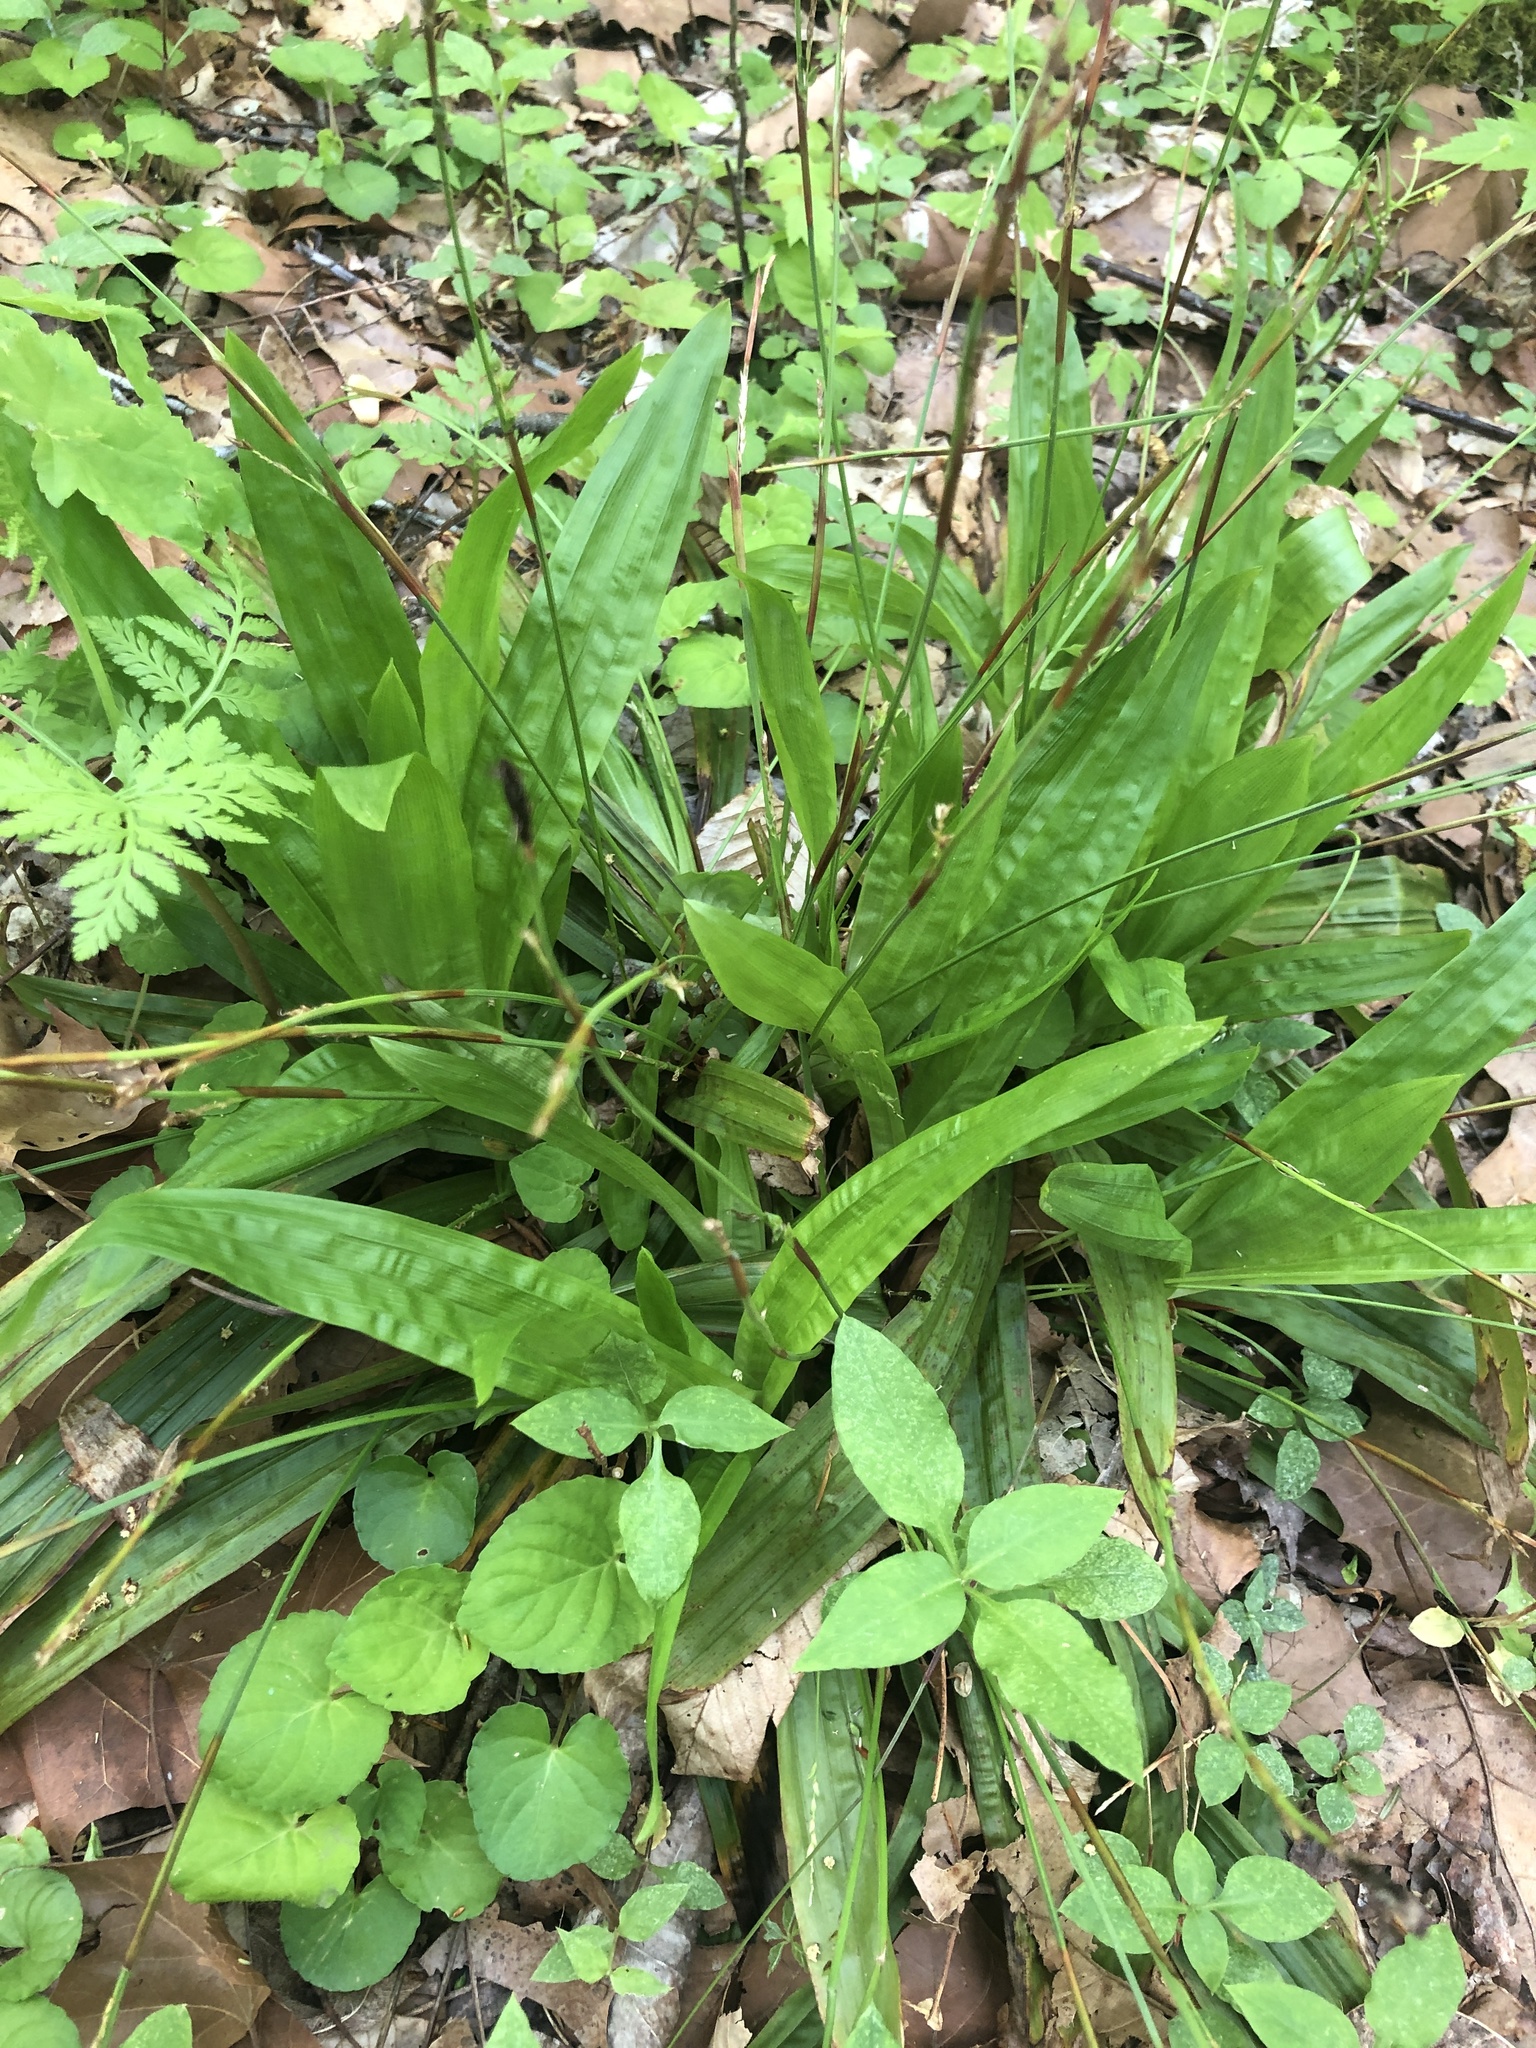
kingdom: Plantae
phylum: Tracheophyta
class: Liliopsida
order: Poales
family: Cyperaceae
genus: Carex
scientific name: Carex plantaginea
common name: Plantain-leaved sedge
